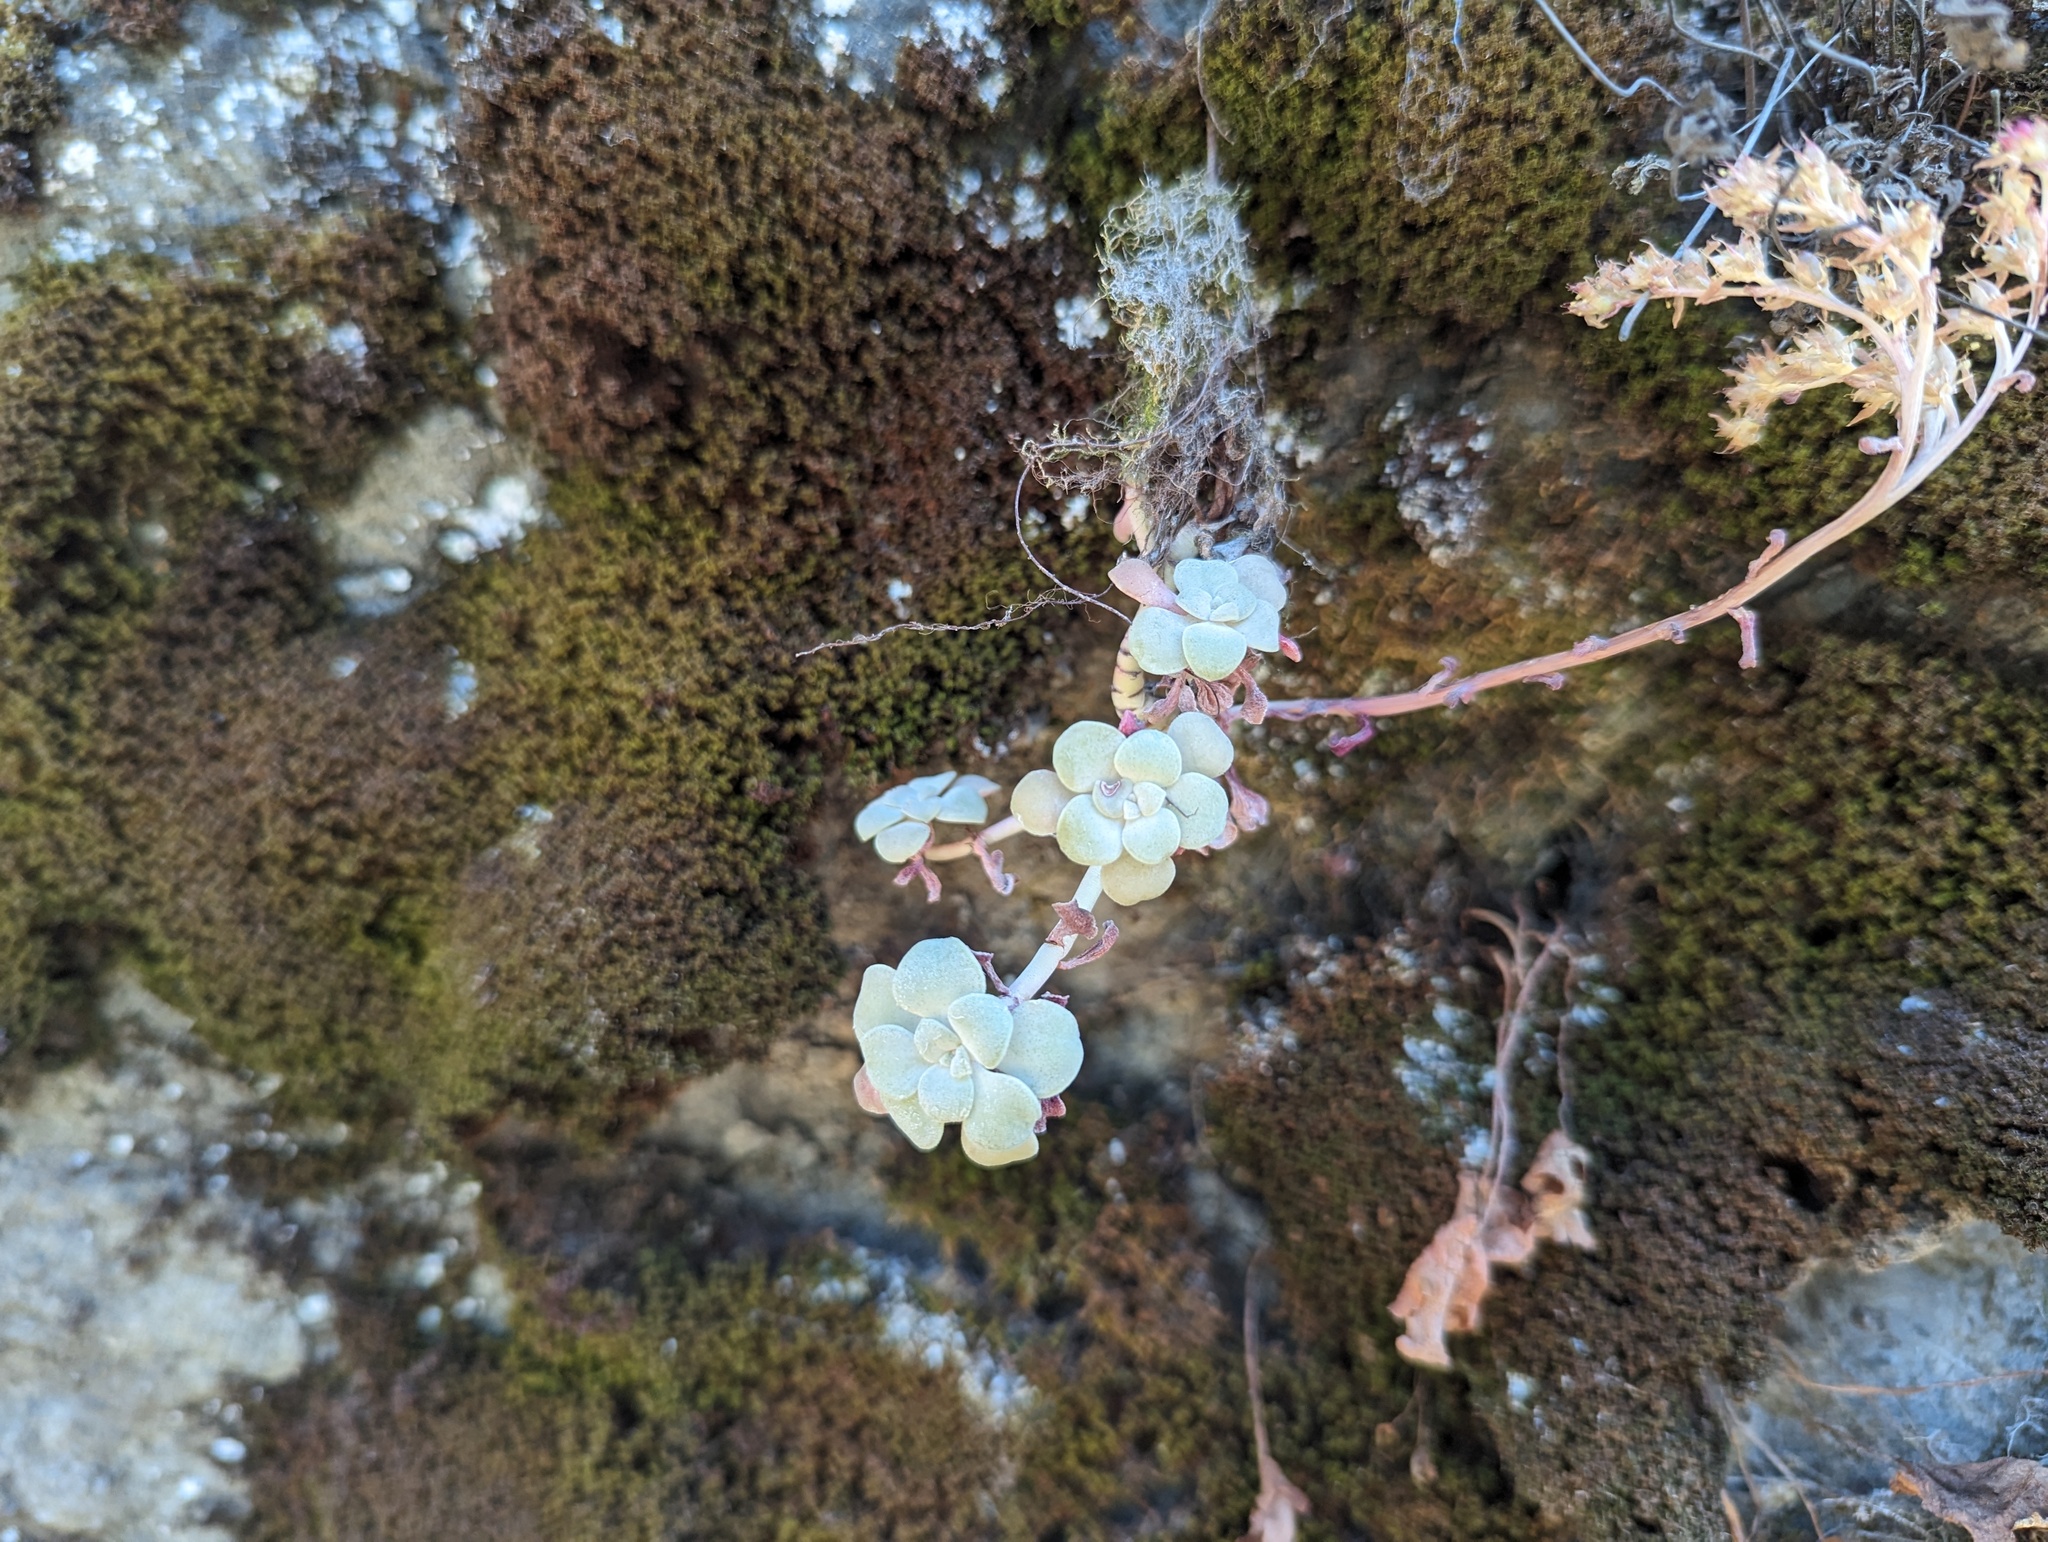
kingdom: Plantae
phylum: Tracheophyta
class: Magnoliopsida
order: Saxifragales
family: Crassulaceae
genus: Sedum
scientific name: Sedum spathulifolium
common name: Colorado stonecrop
